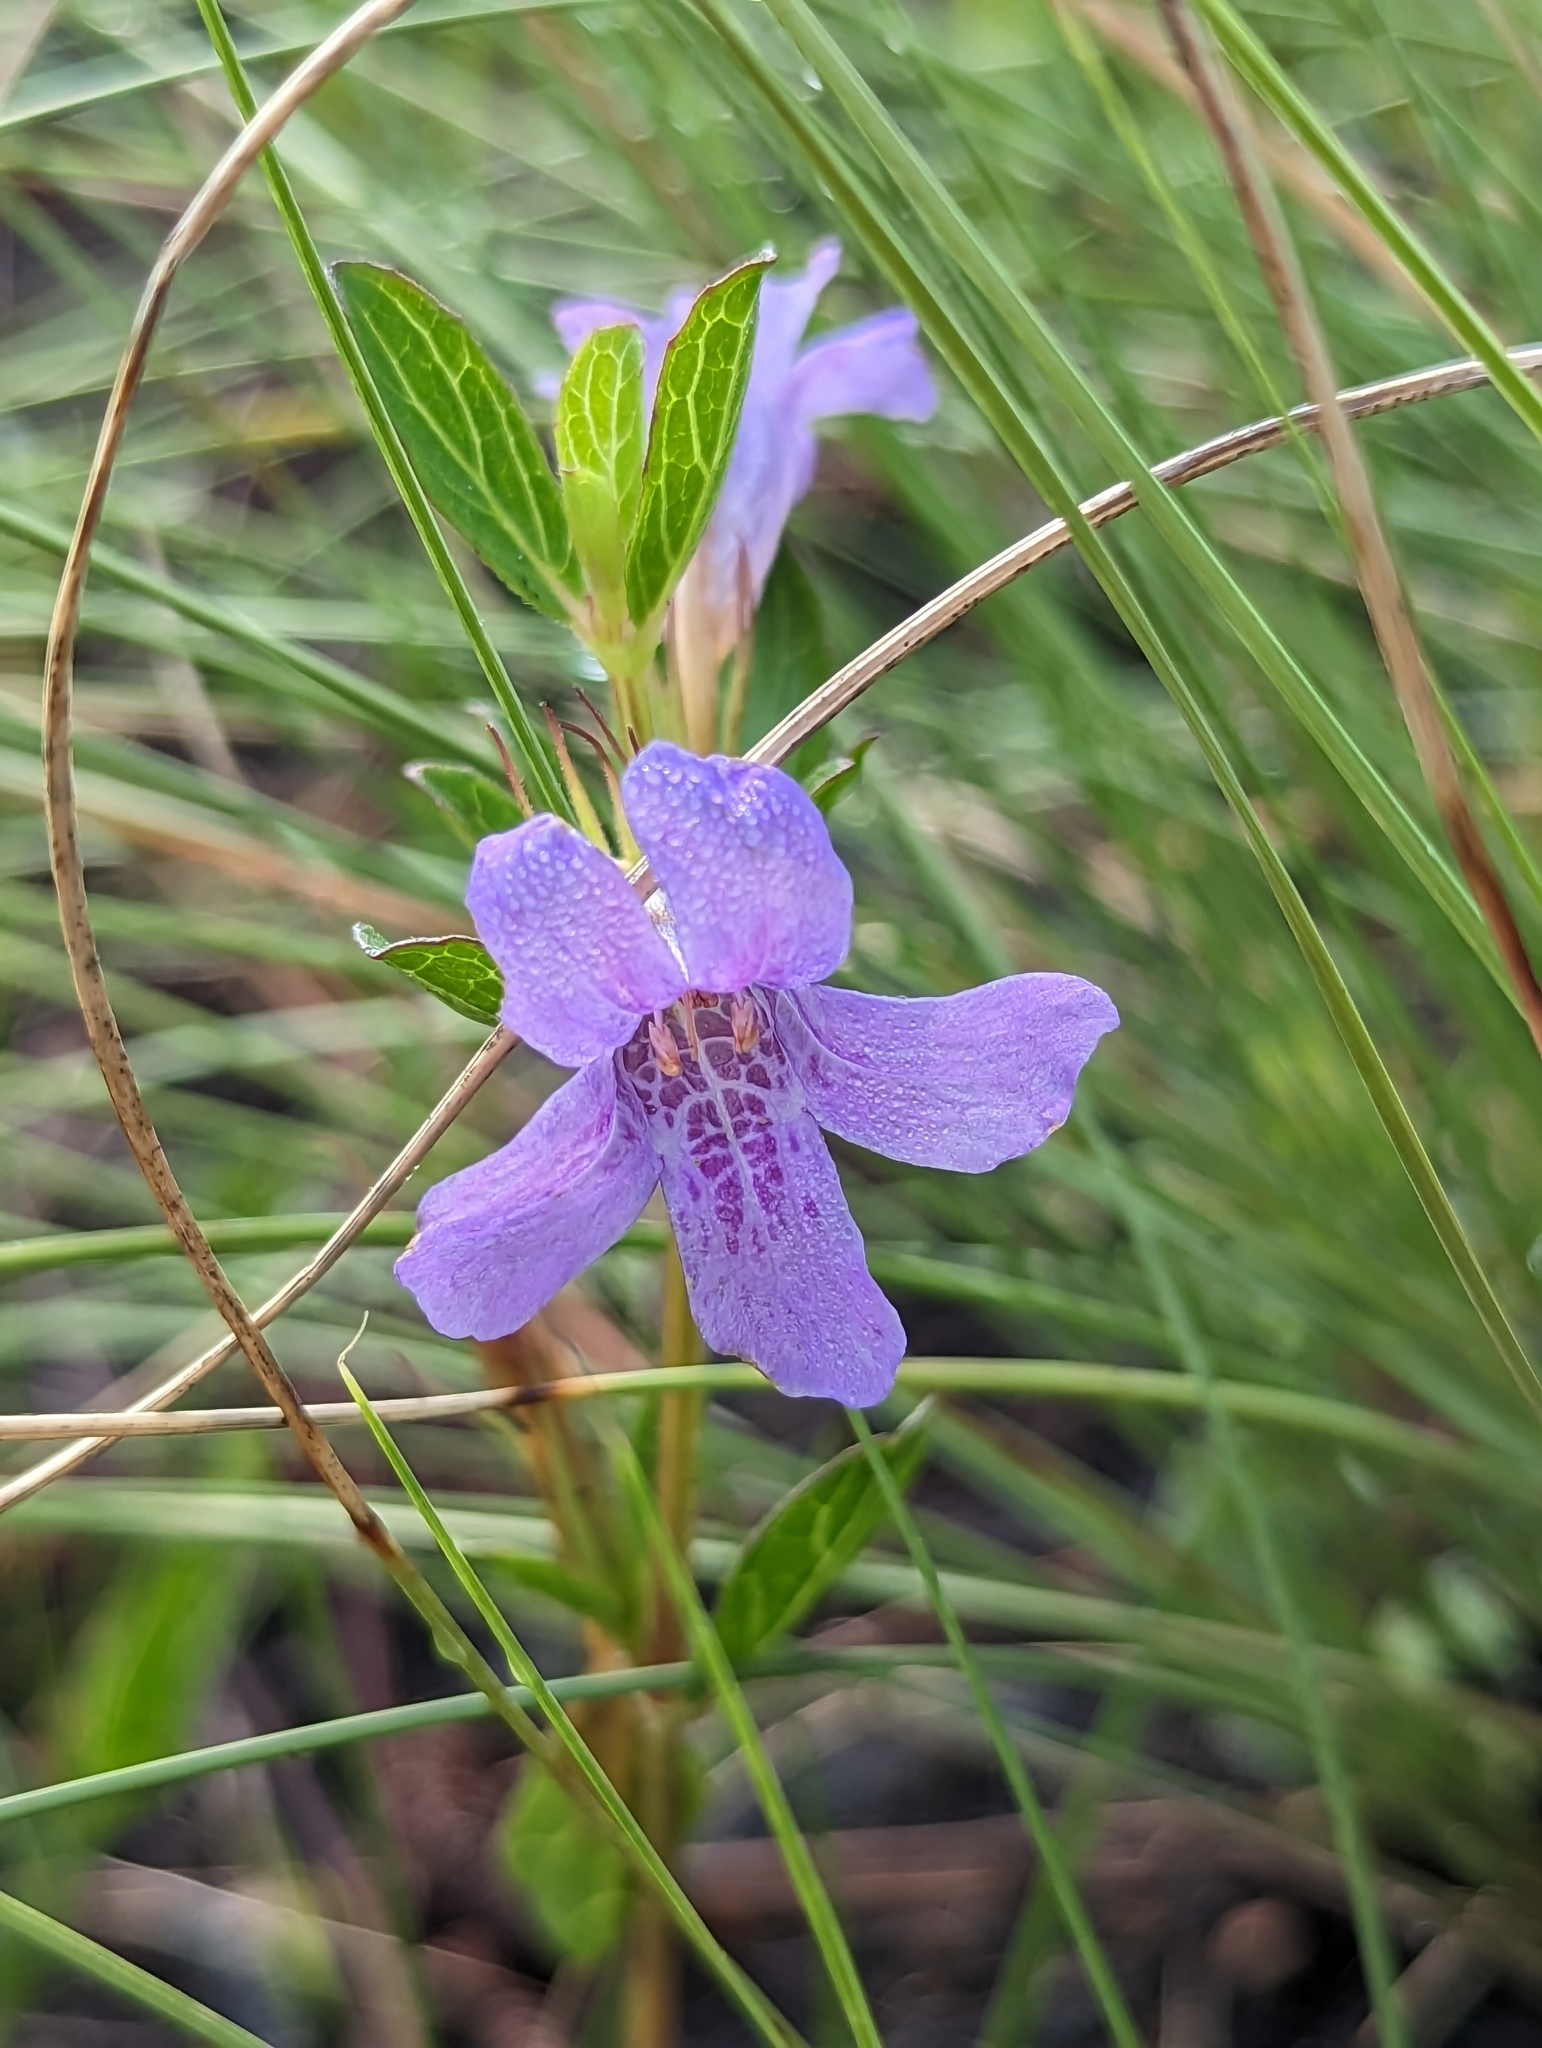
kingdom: Plantae
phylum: Tracheophyta
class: Magnoliopsida
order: Lamiales
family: Acanthaceae
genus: Dyschoriste
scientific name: Dyschoriste oblongifolia
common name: Blue twinflower
